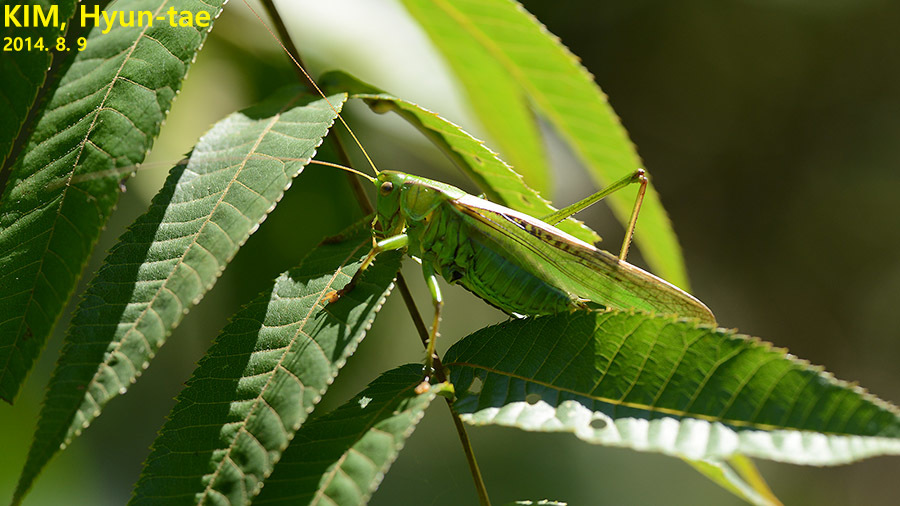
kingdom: Animalia
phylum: Arthropoda
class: Insecta
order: Orthoptera
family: Tettigoniidae
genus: Gampsocleis
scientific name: Gampsocleis ussuriensis
